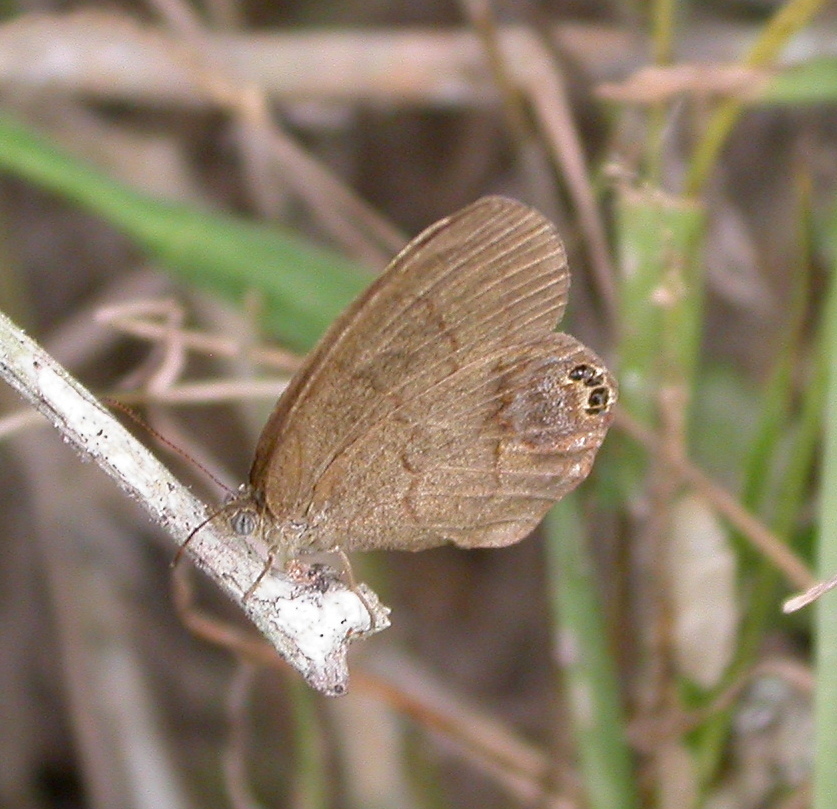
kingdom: Animalia
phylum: Arthropoda
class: Insecta
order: Lepidoptera
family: Nymphalidae
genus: Euptychia
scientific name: Euptychia cornelius
